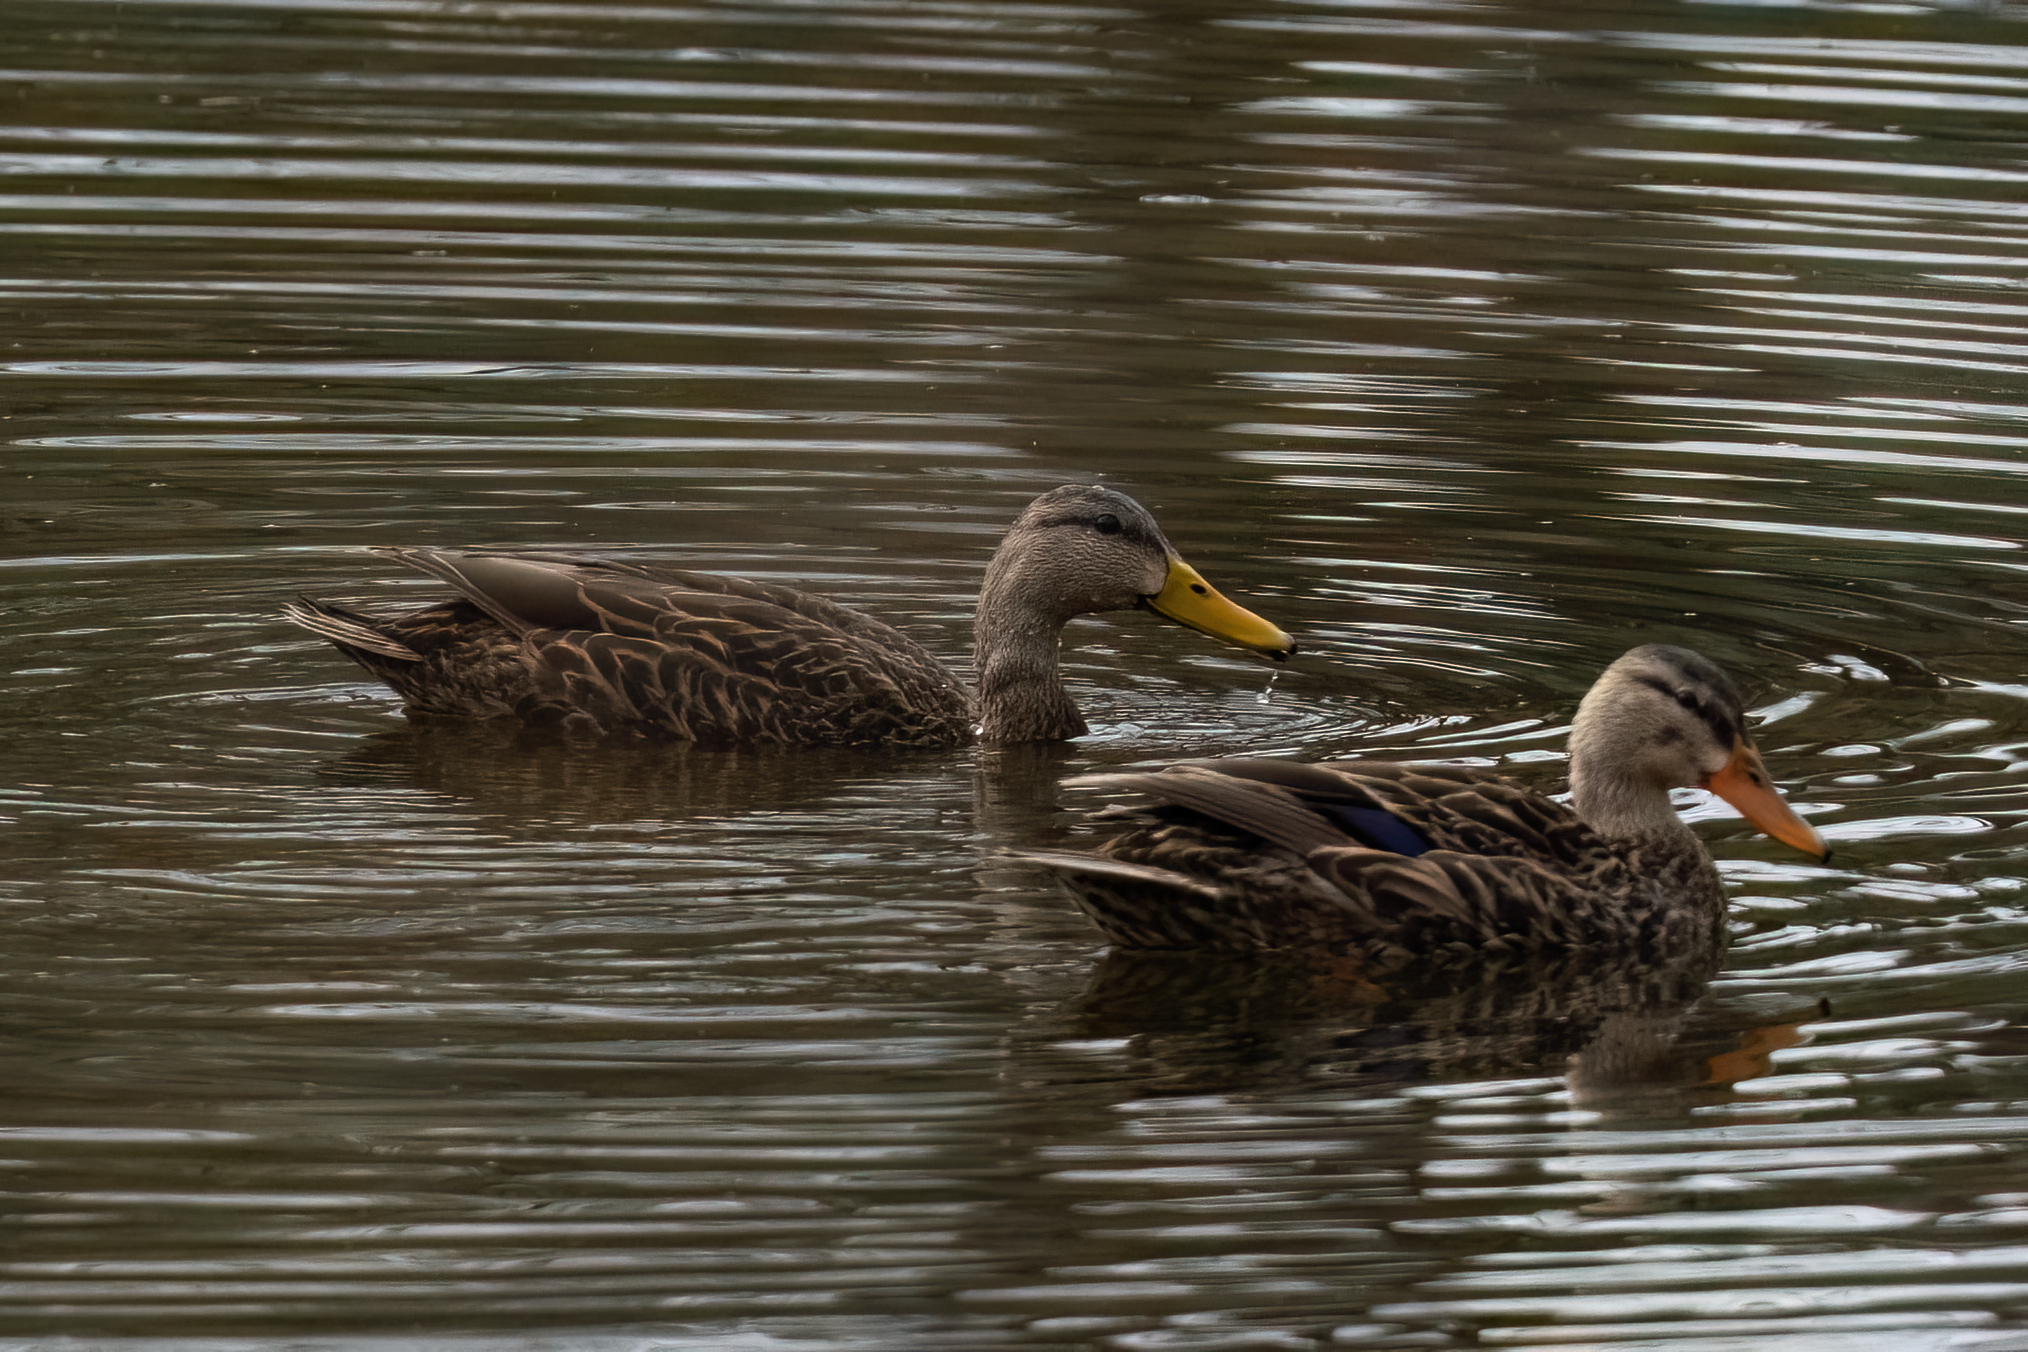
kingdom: Animalia
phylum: Chordata
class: Aves
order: Anseriformes
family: Anatidae
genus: Anas
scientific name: Anas fulvigula
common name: Mottled duck
